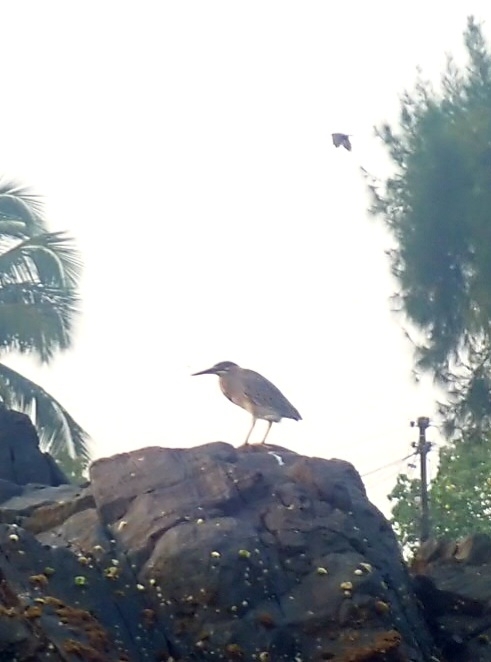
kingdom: Animalia
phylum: Chordata
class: Aves
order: Pelecaniformes
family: Ardeidae
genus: Butorides
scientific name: Butorides striata
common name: Striated heron
